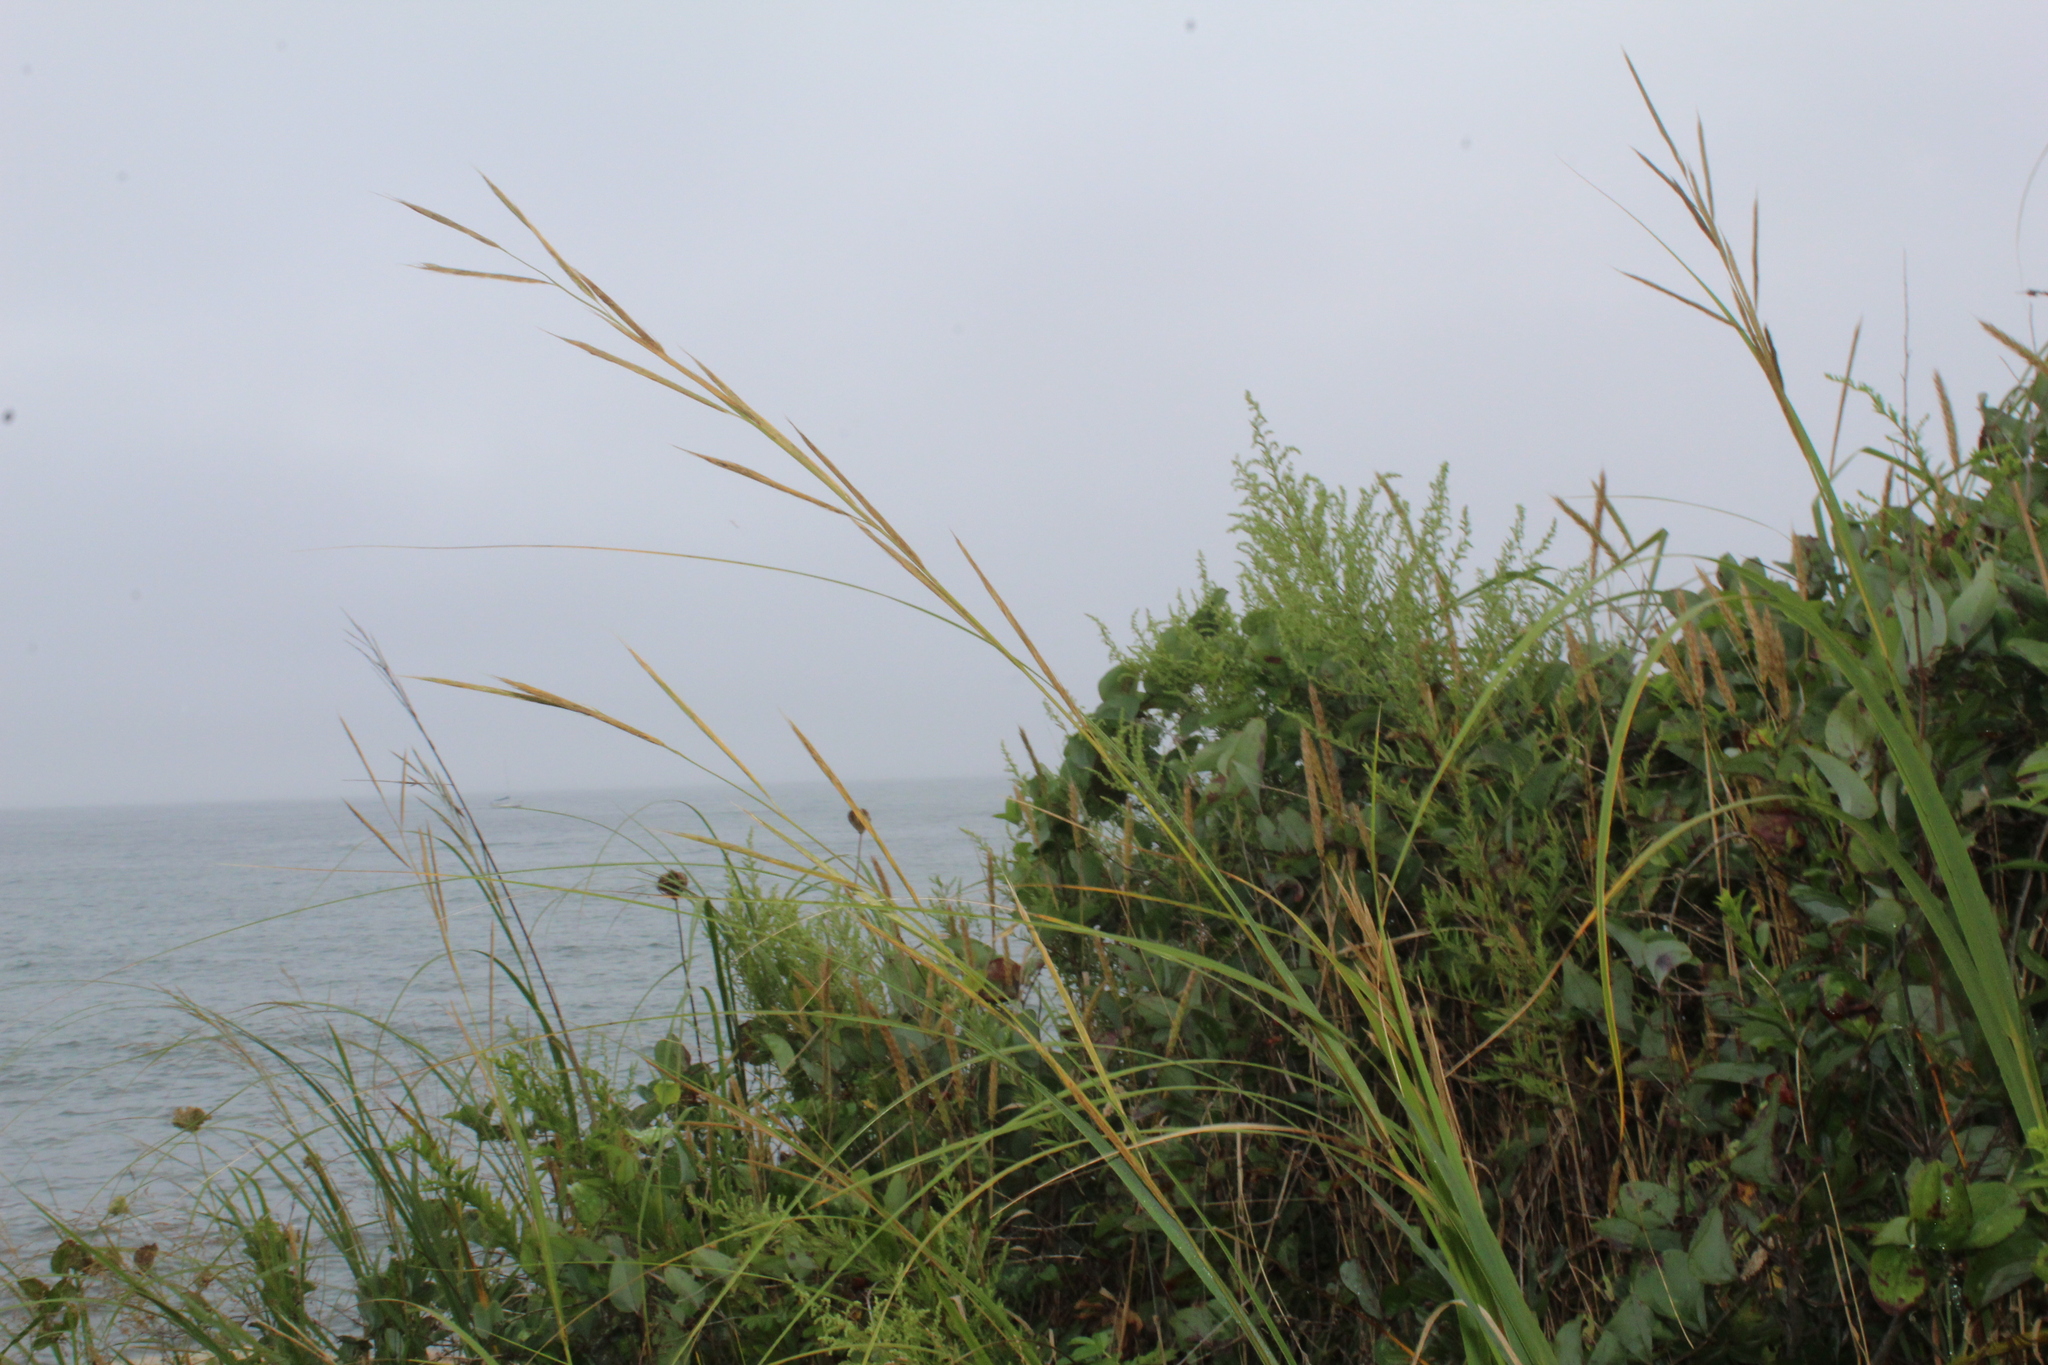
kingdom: Plantae
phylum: Tracheophyta
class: Liliopsida
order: Poales
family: Poaceae
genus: Sporobolus
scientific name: Sporobolus michauxianus
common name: Freshwater cordgrass
